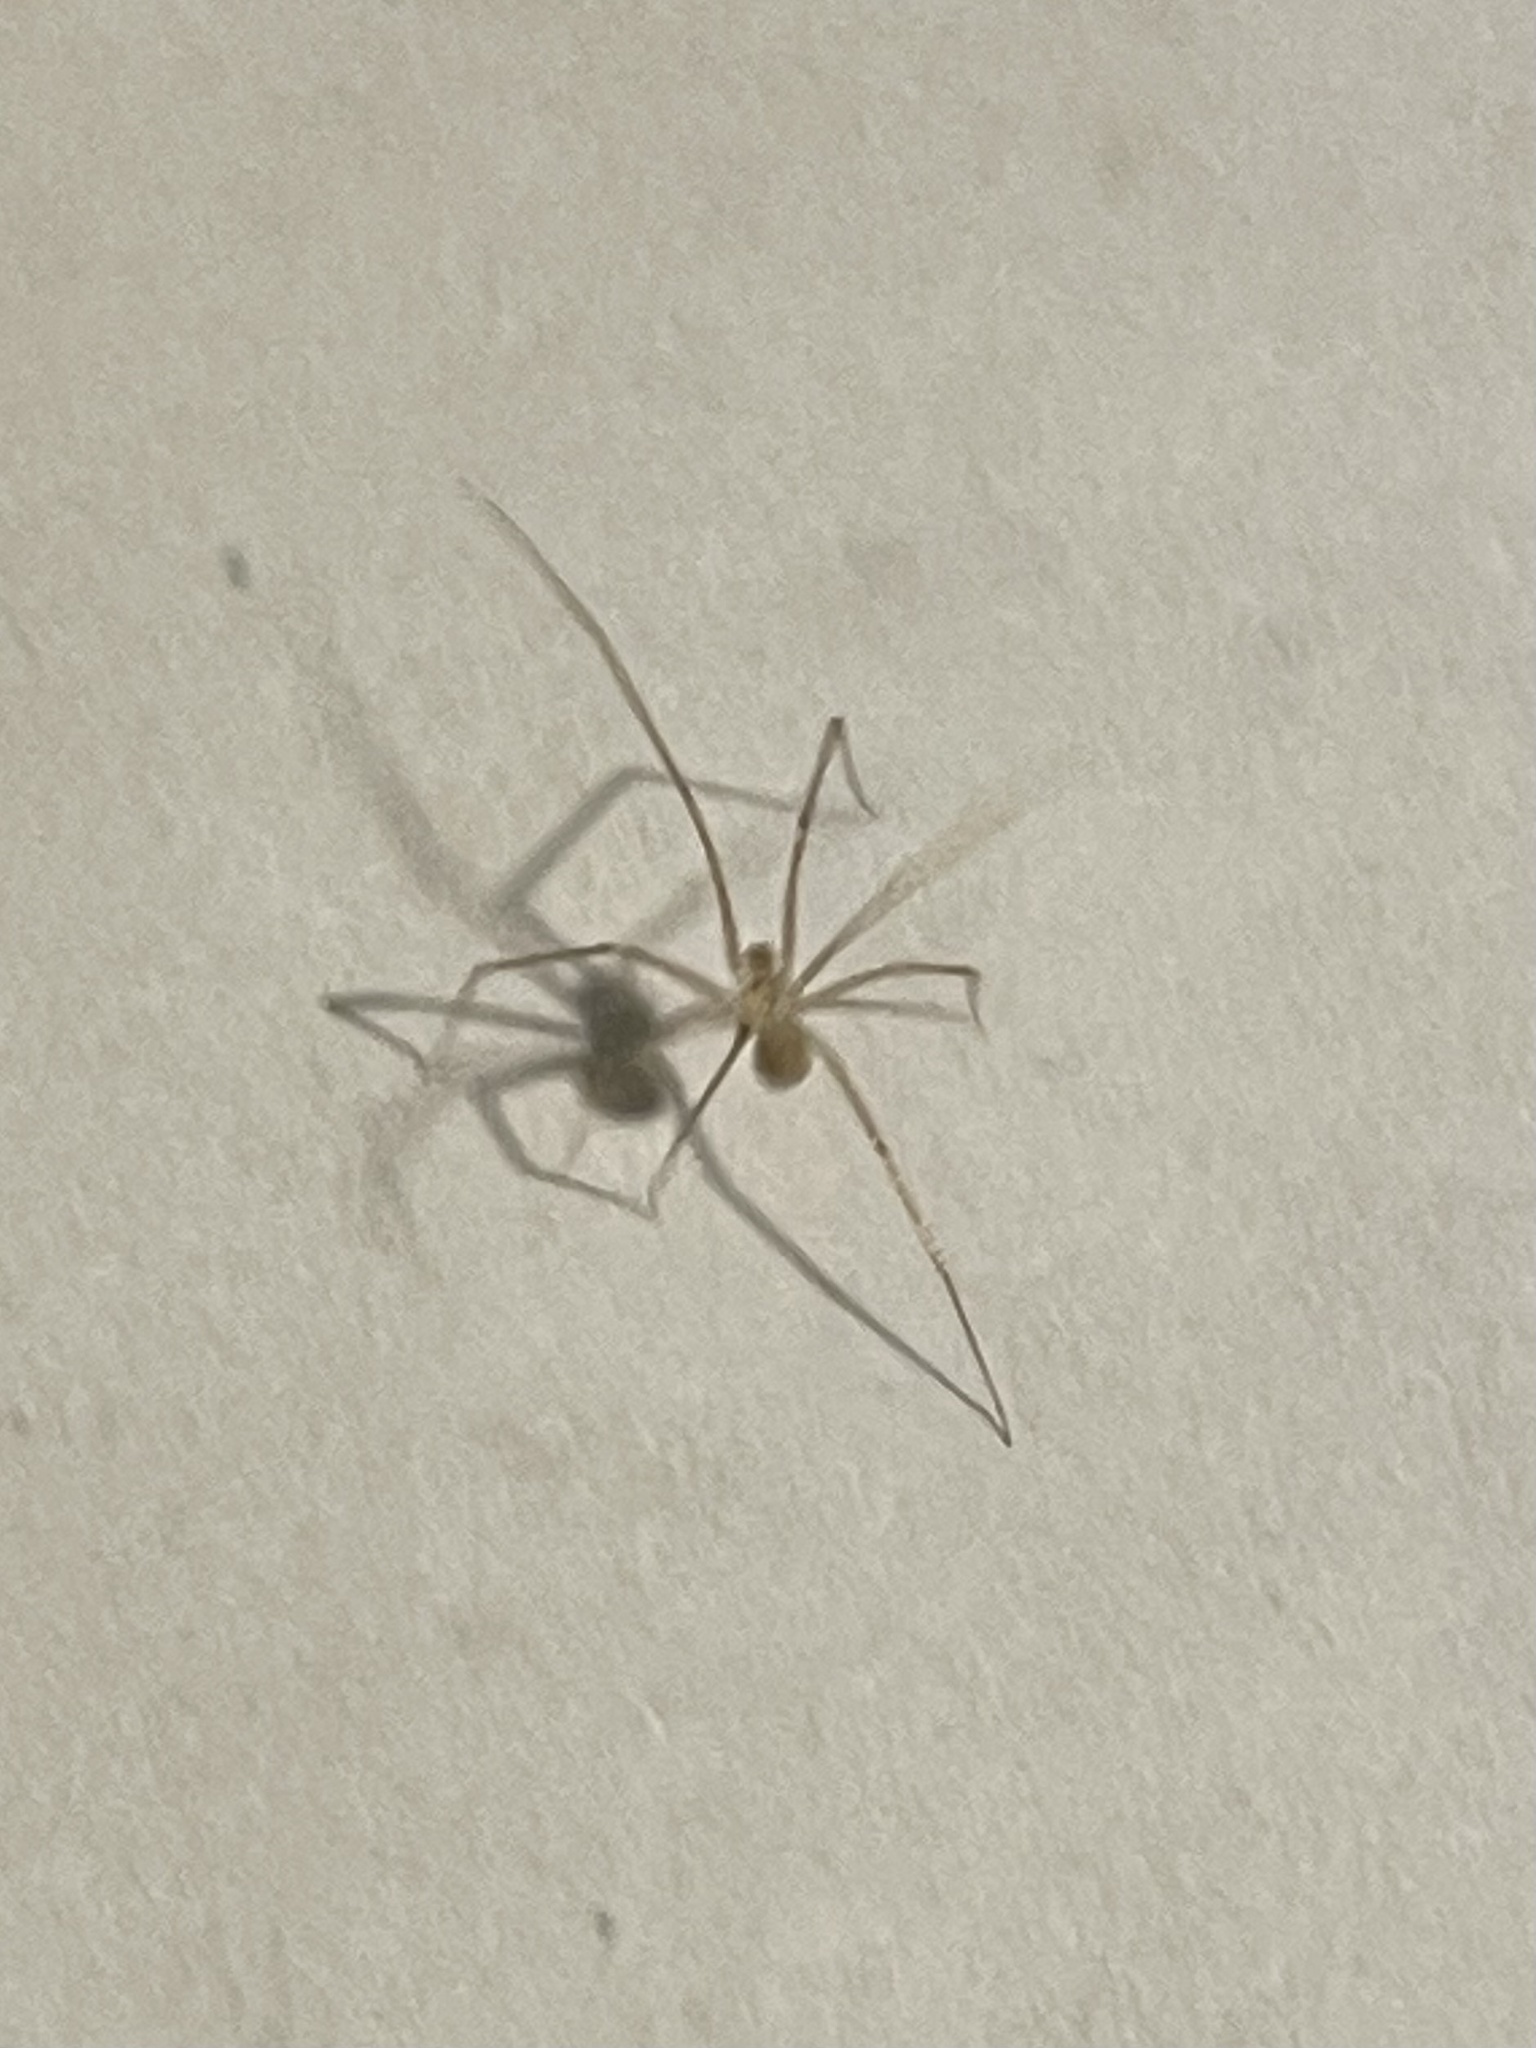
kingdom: Animalia
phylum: Arthropoda
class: Arachnida
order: Araneae
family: Pholcidae
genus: Spermophora
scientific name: Spermophora senoculata
